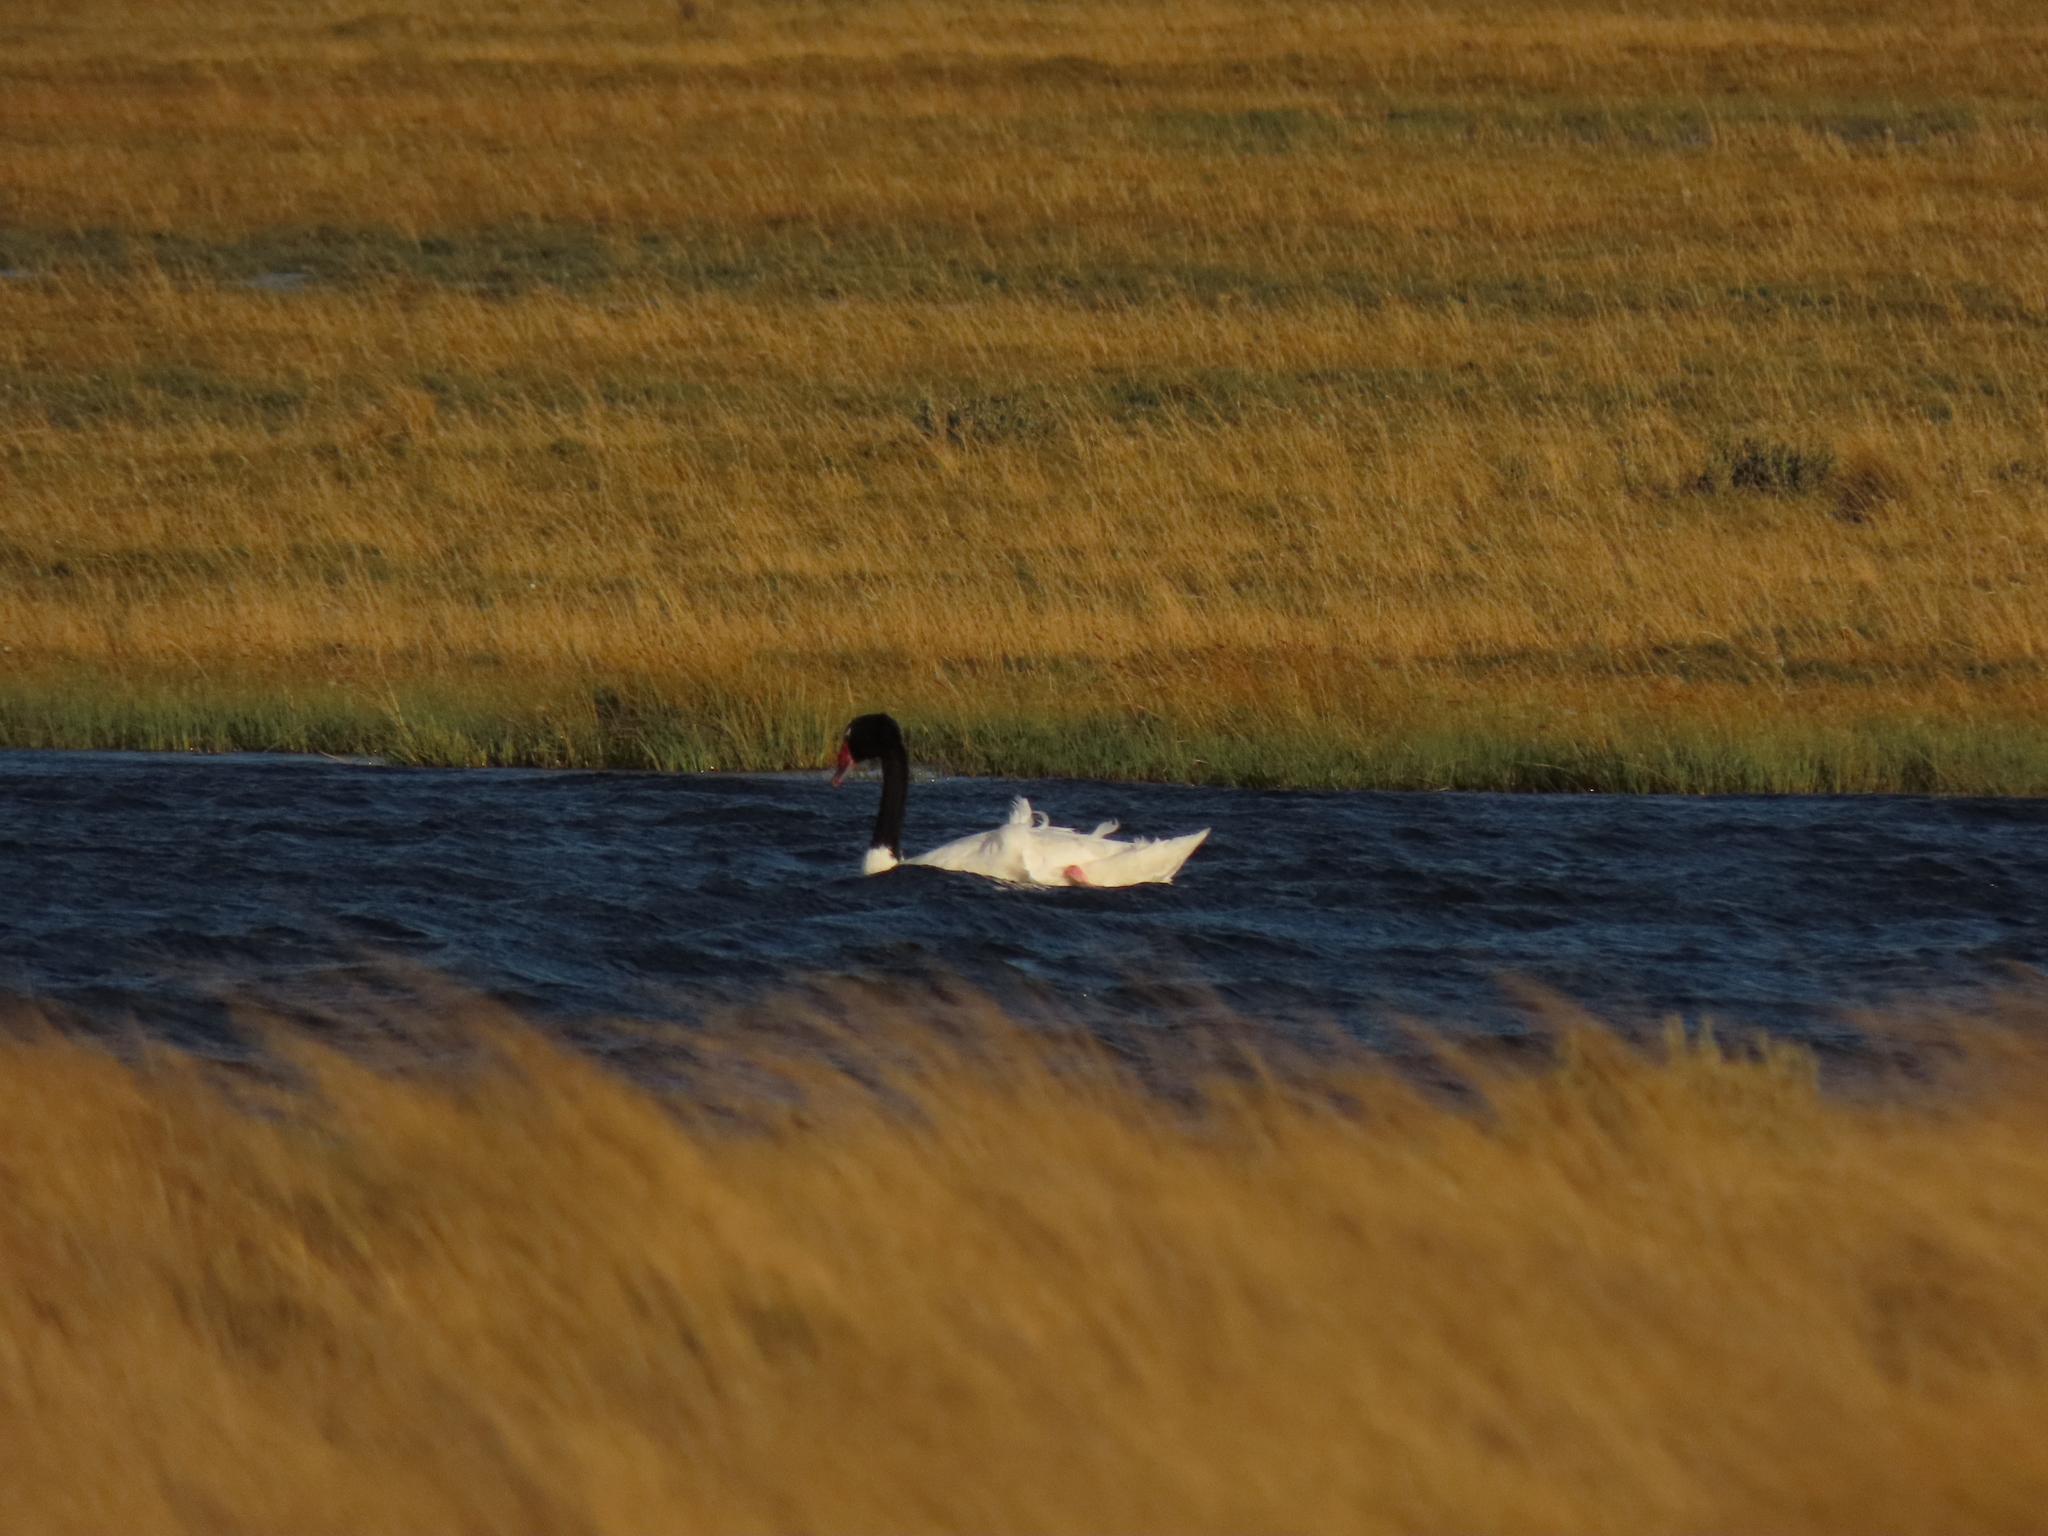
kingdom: Animalia
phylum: Chordata
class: Aves
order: Anseriformes
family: Anatidae
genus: Cygnus
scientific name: Cygnus melancoryphus
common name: Black-necked swan
